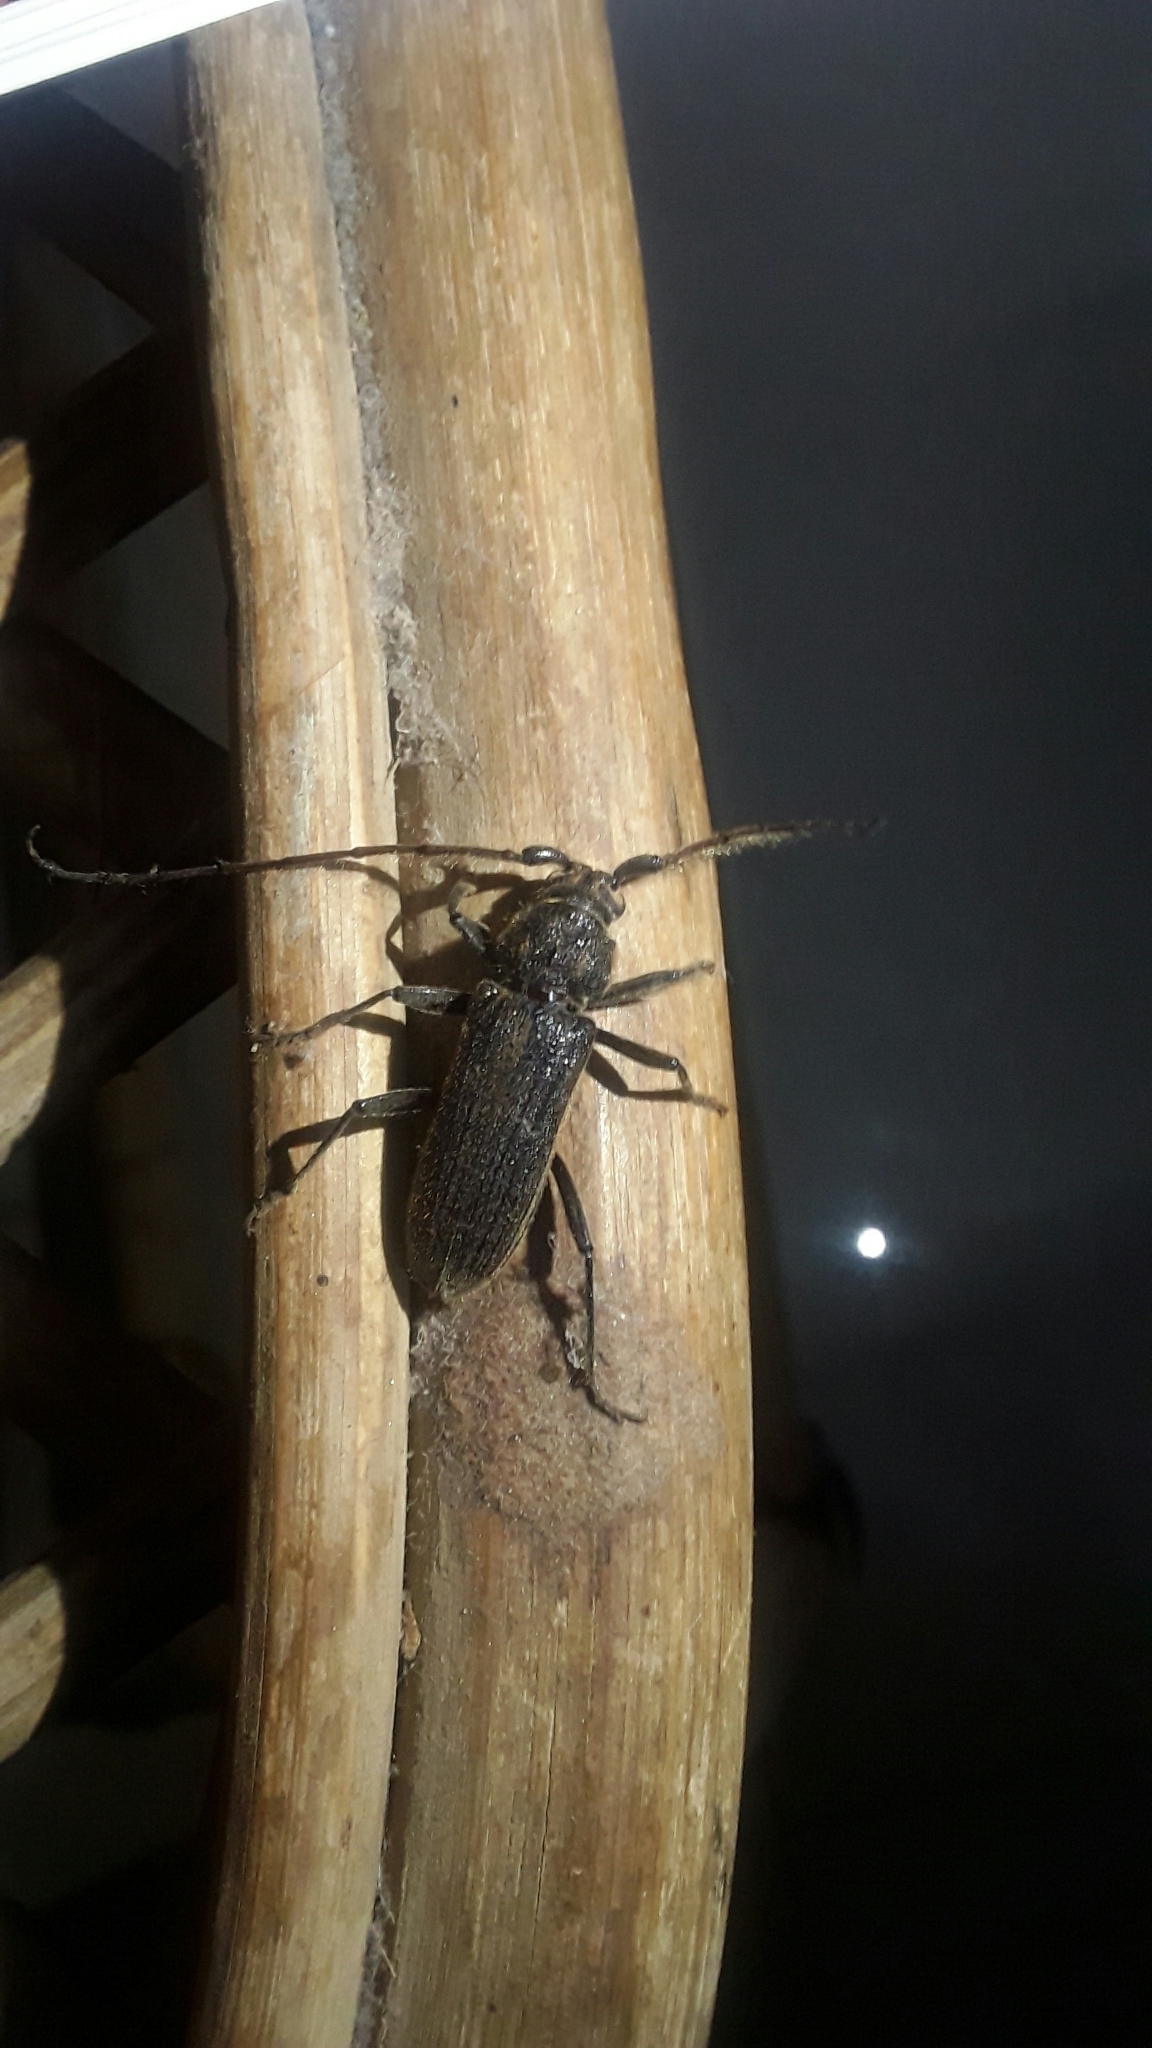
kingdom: Animalia
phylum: Arthropoda
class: Insecta
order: Coleoptera
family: Cerambycidae
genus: Stromatium
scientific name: Stromatium barbatum
